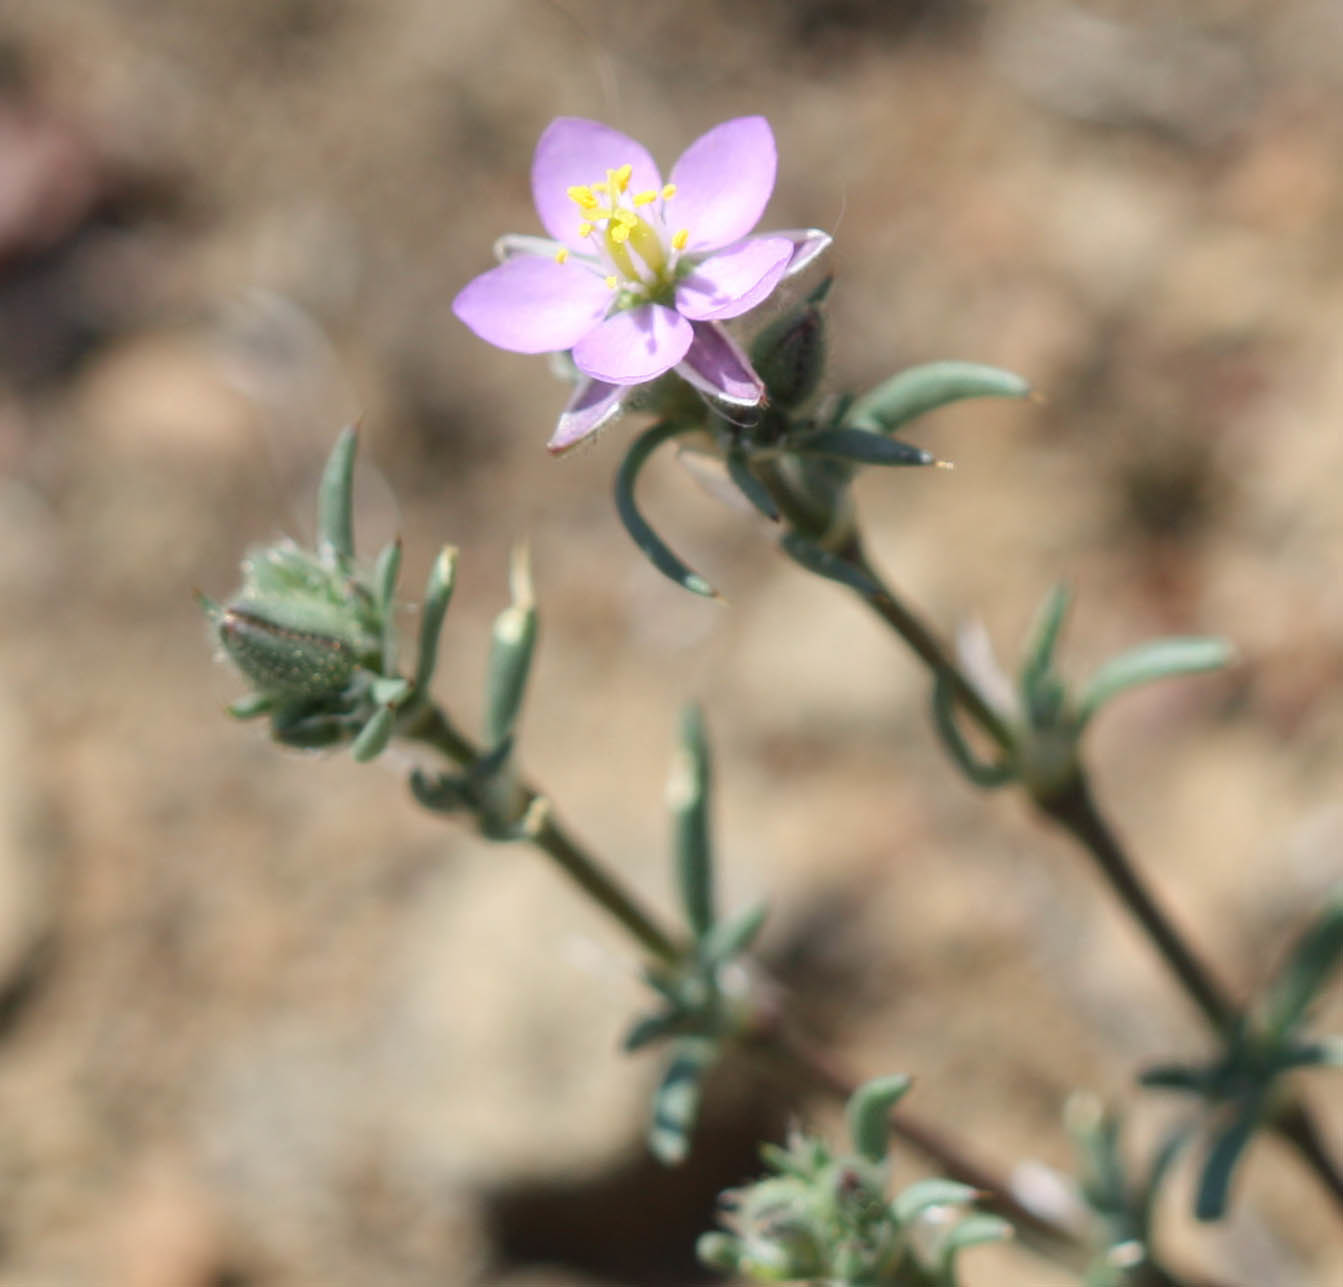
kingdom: Plantae
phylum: Tracheophyta
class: Magnoliopsida
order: Caryophyllales
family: Caryophyllaceae
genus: Spergularia
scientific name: Spergularia rubra
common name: Red sand-spurrey
